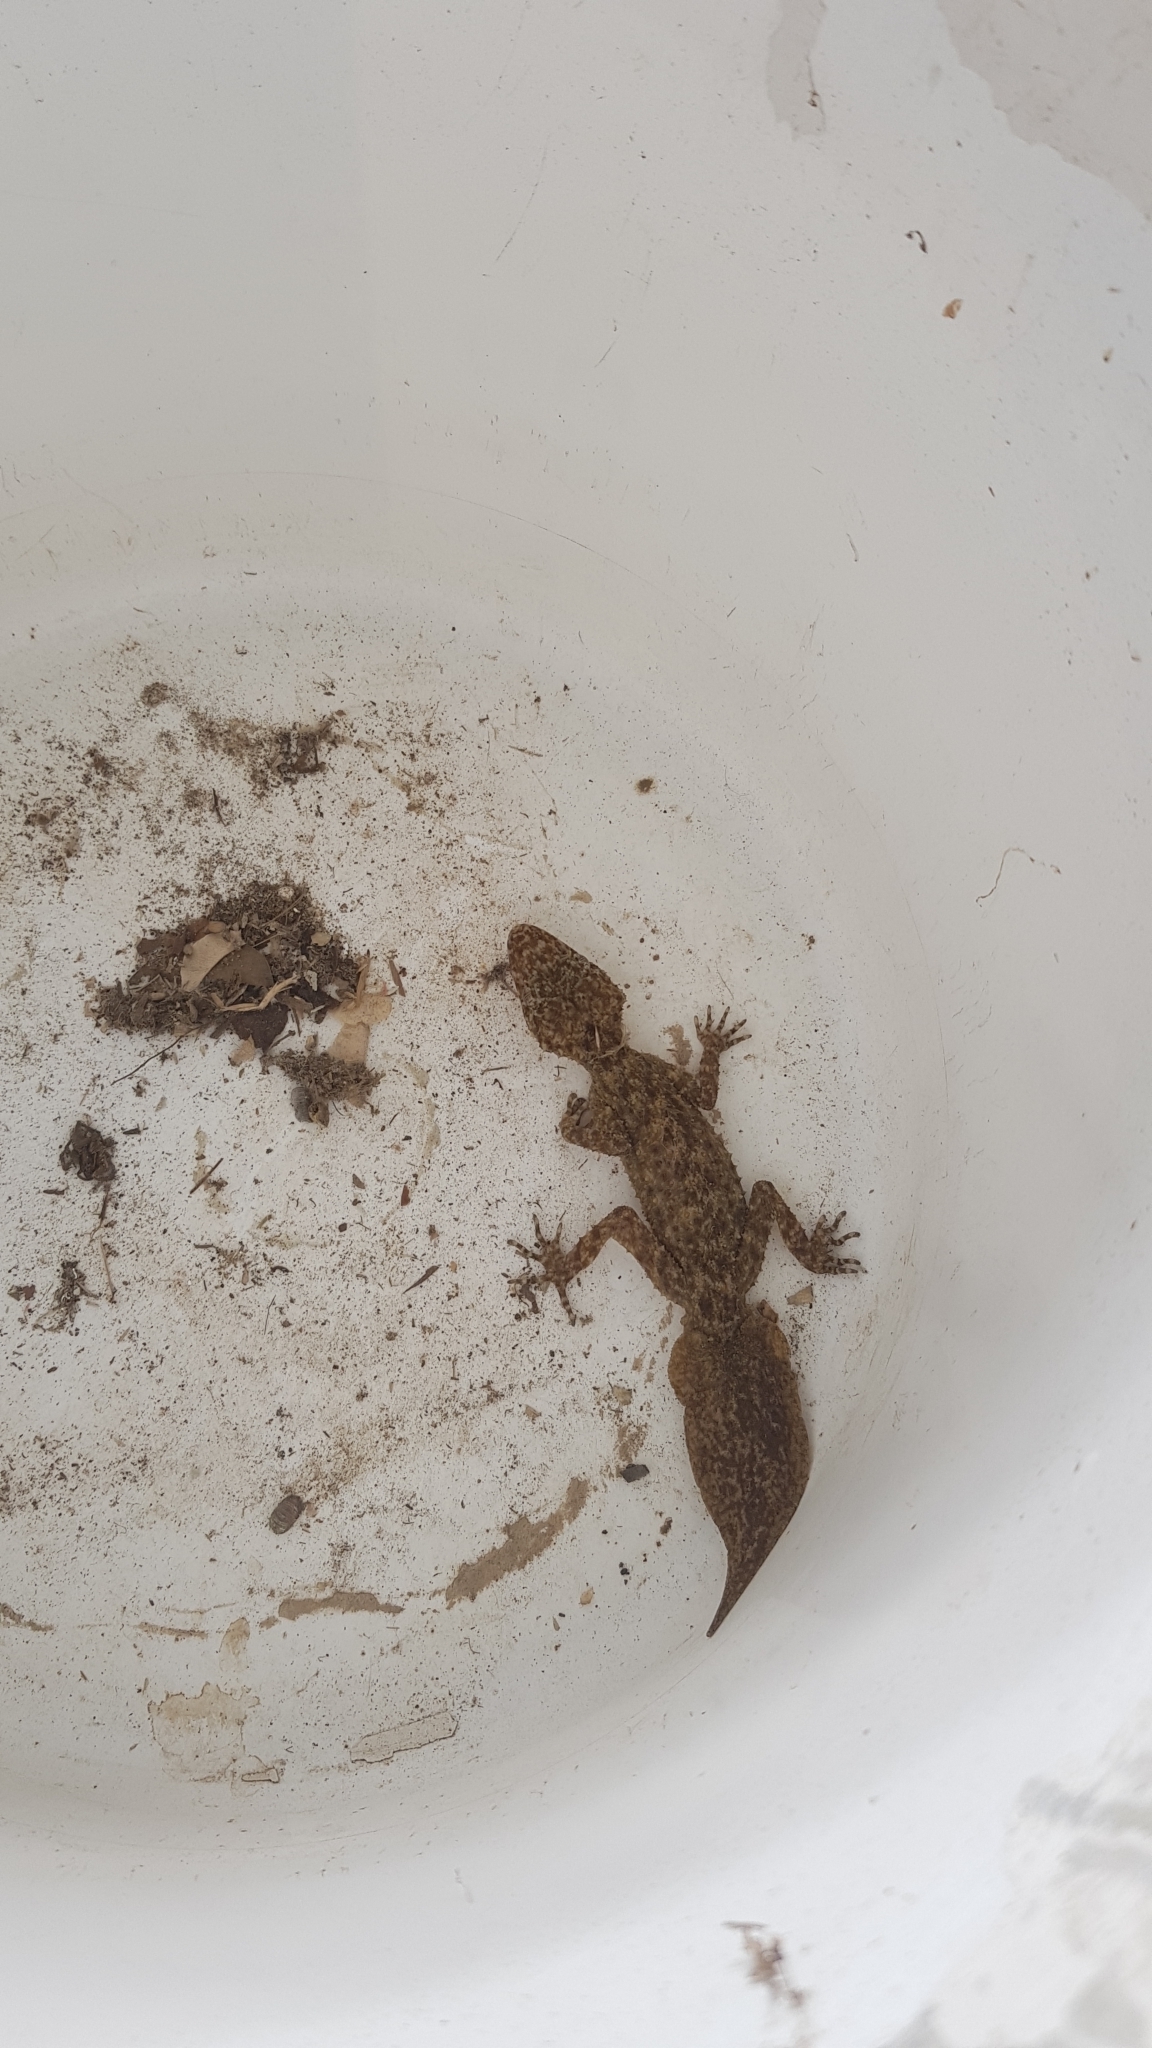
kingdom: Animalia
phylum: Chordata
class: Squamata
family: Carphodactylidae
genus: Phyllurus
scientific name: Phyllurus platurus
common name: Broad-tailed gecko
